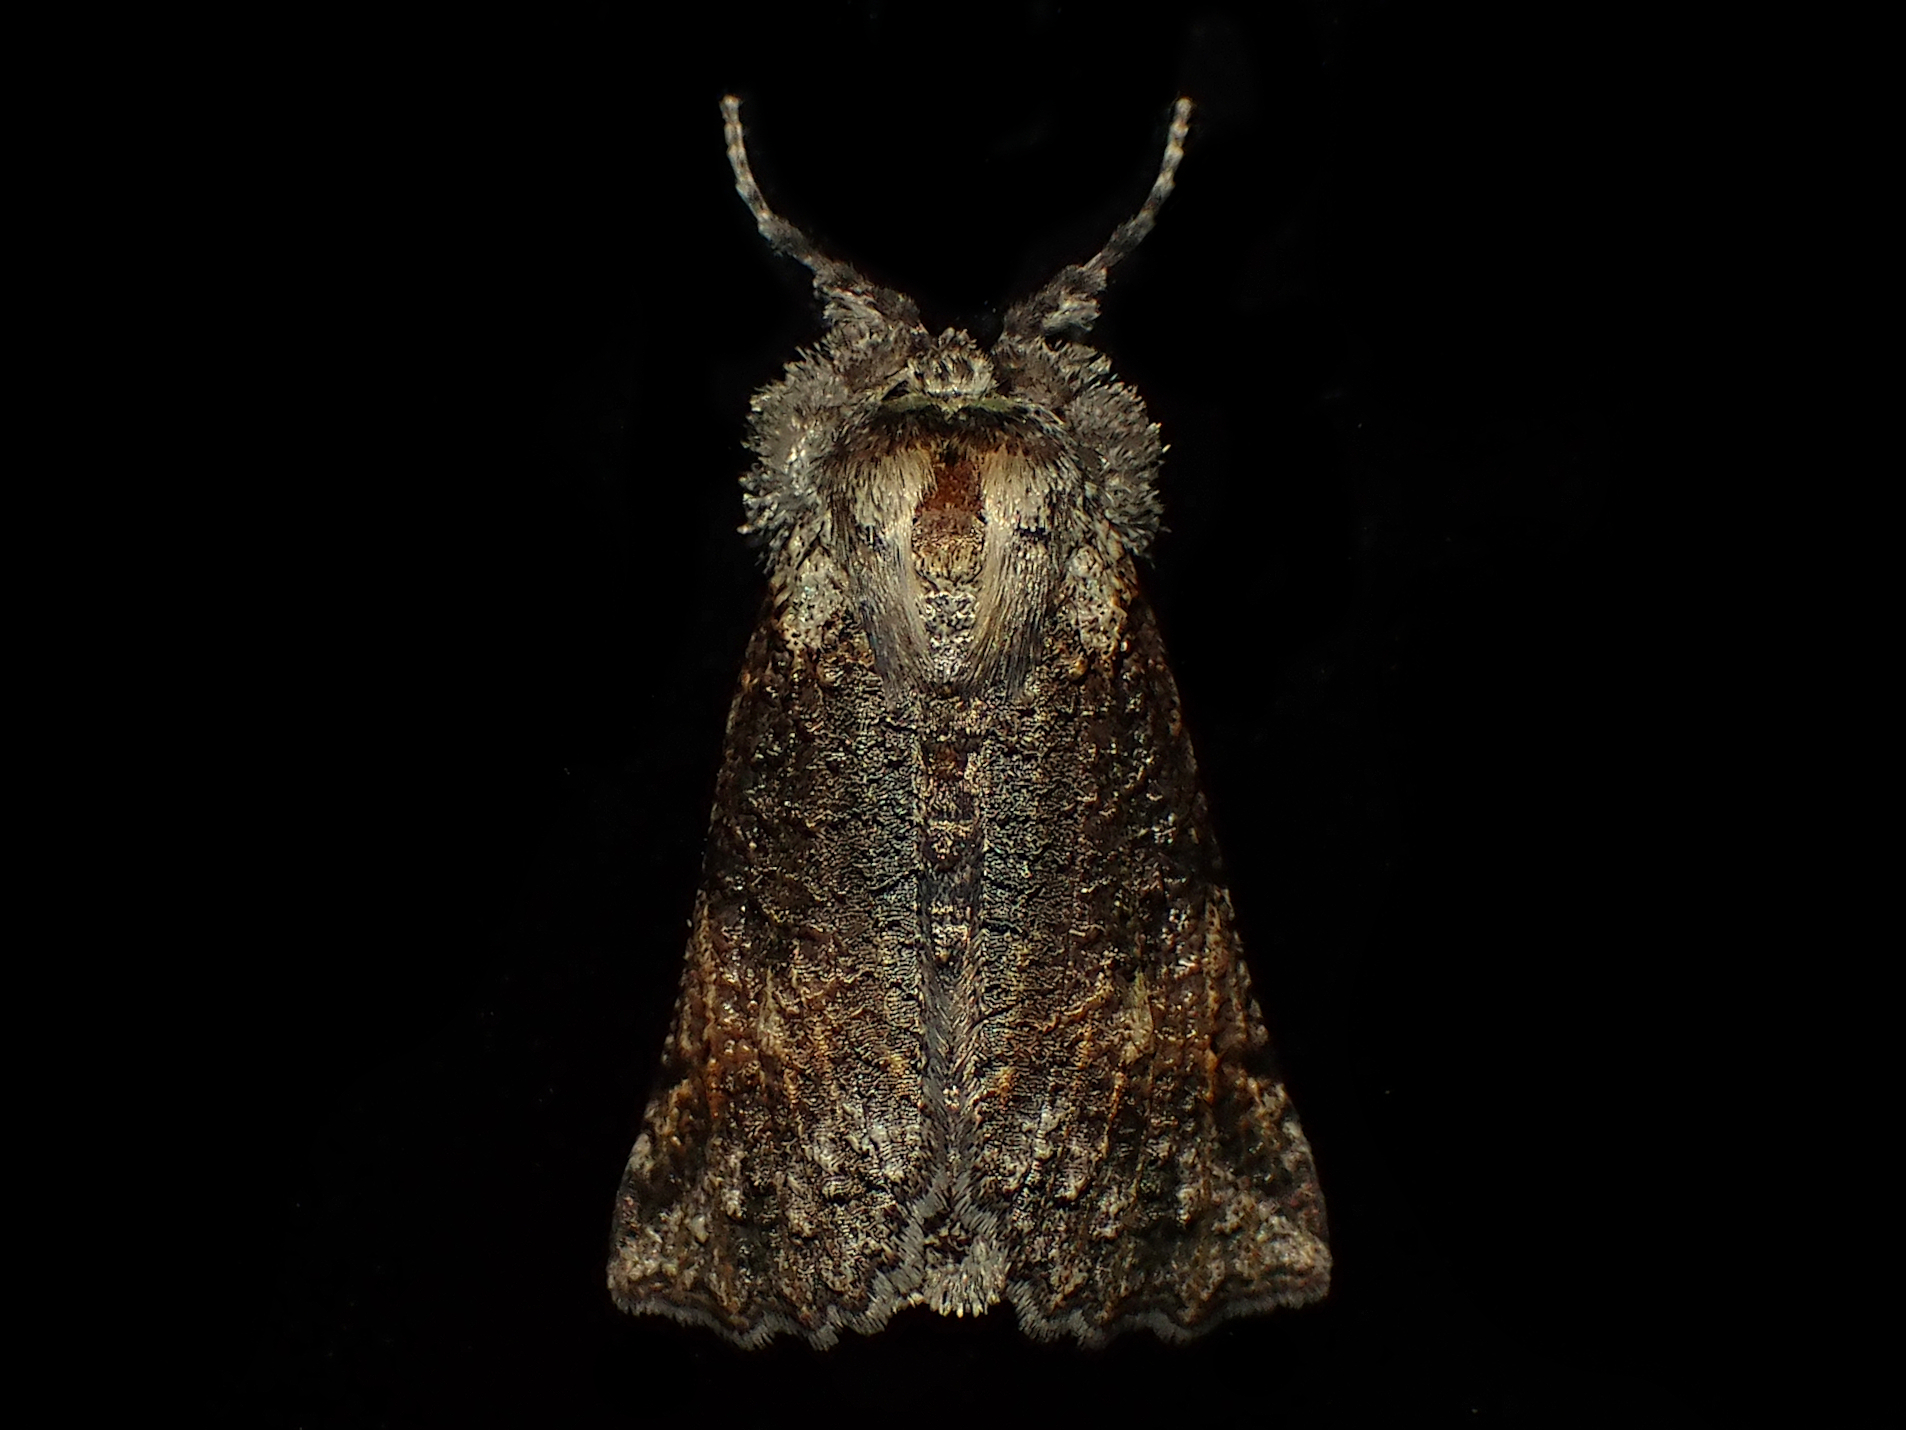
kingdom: Animalia
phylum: Arthropoda
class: Insecta
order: Lepidoptera
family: Geometridae
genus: Declana
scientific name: Declana floccosa
